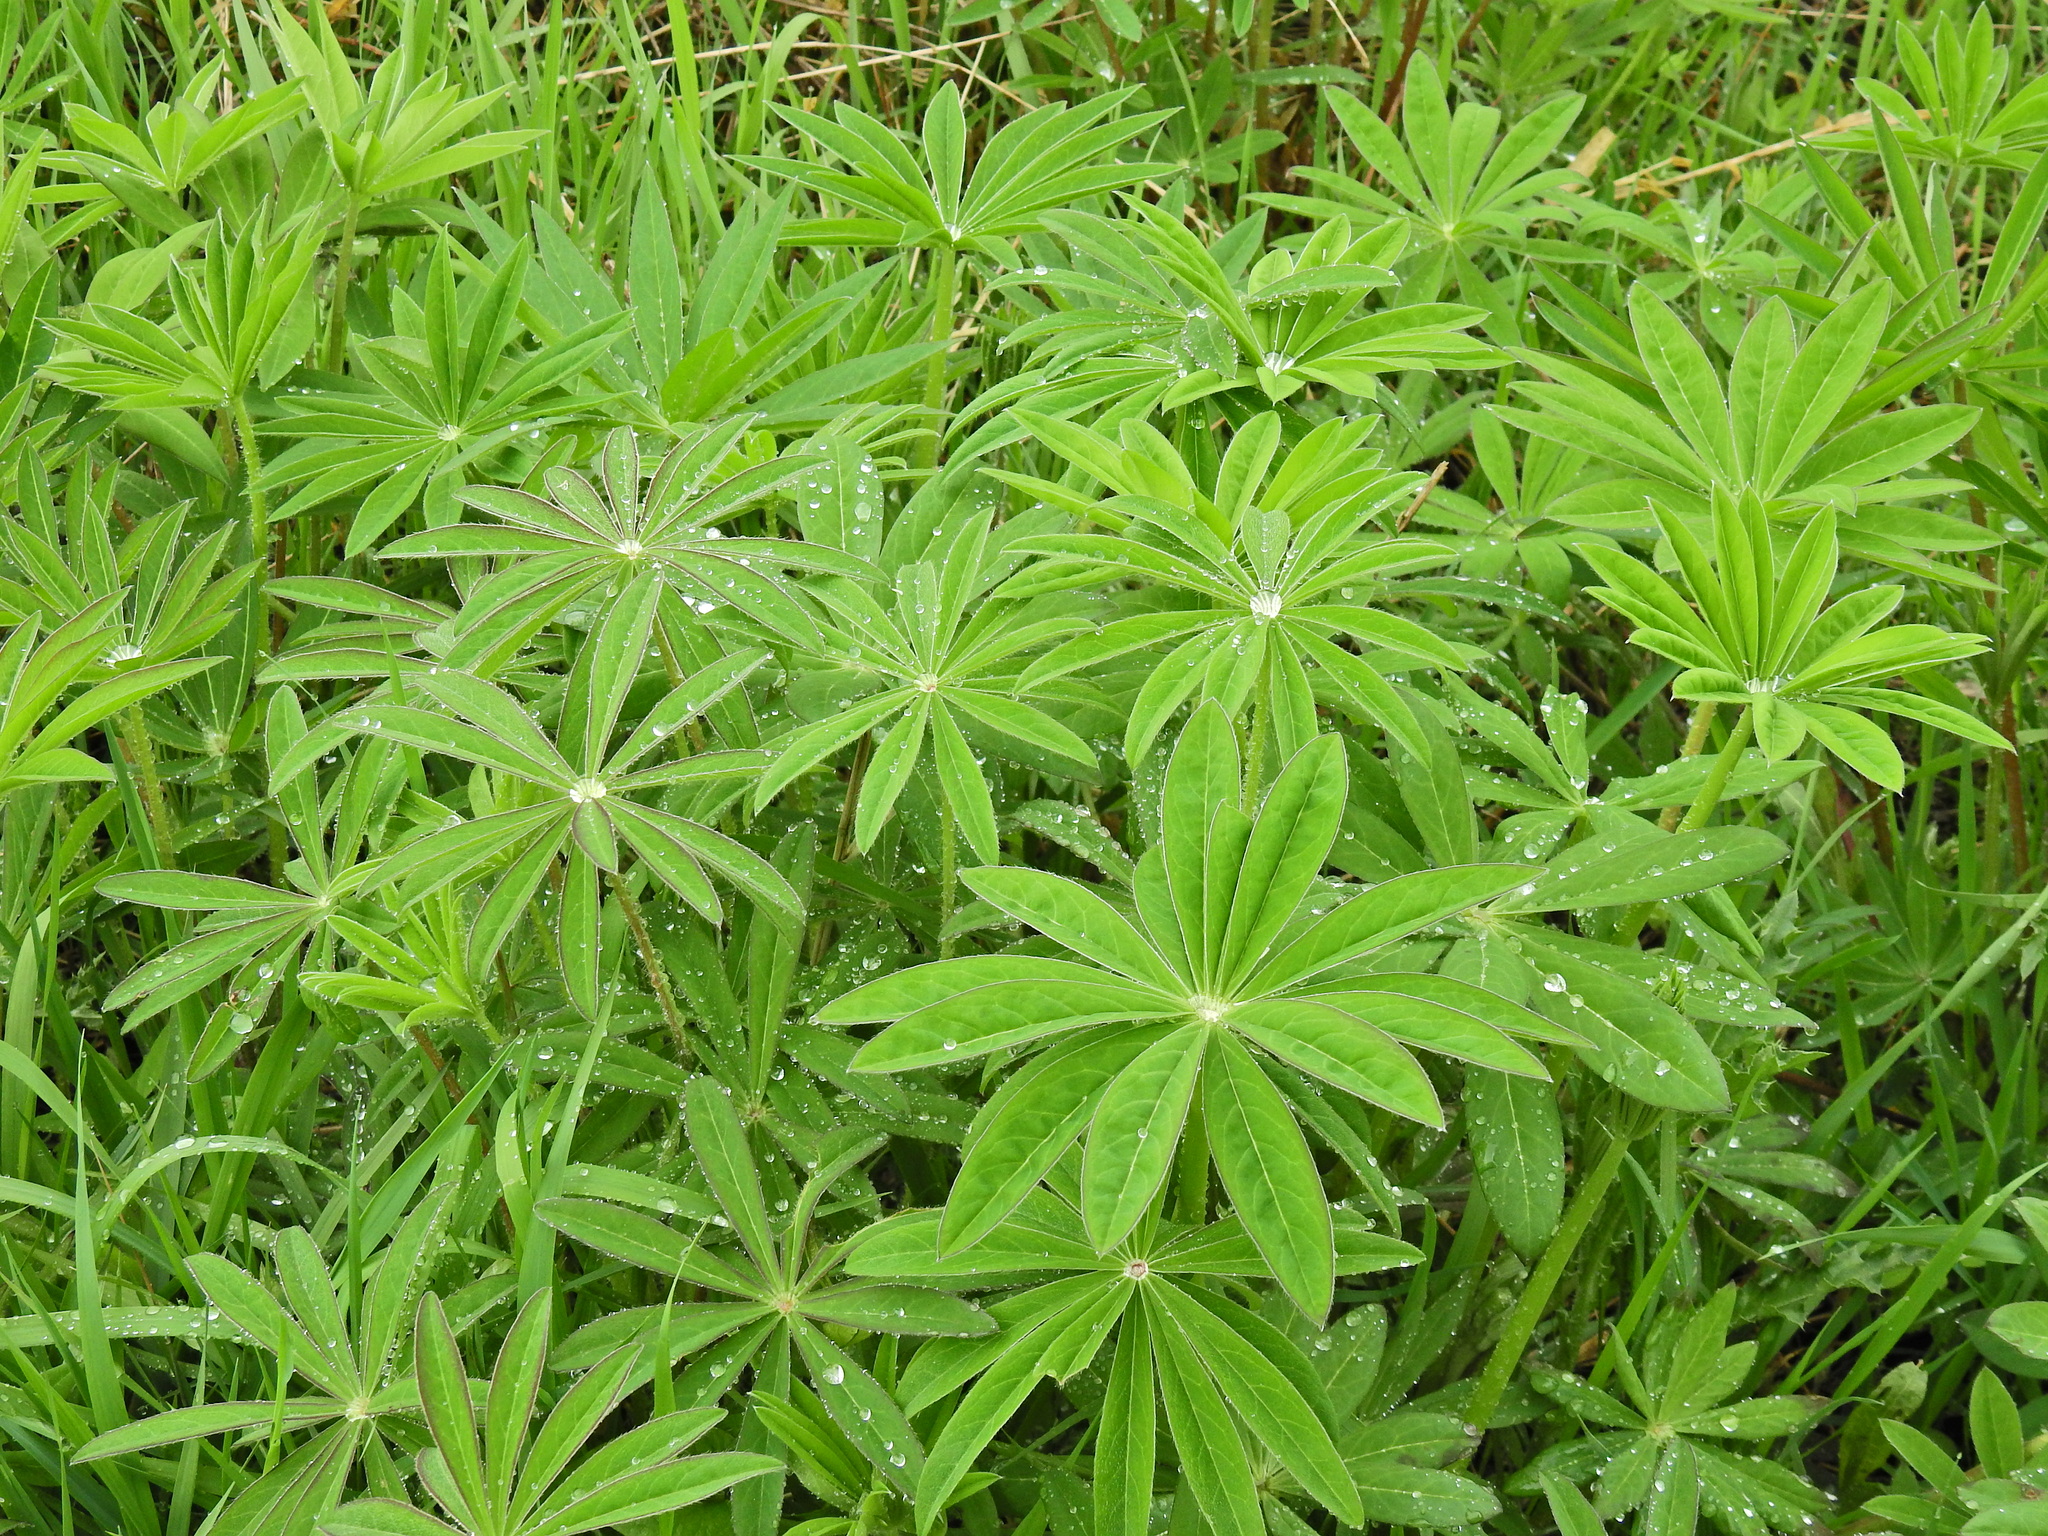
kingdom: Plantae
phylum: Tracheophyta
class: Magnoliopsida
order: Fabales
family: Fabaceae
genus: Lupinus
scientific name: Lupinus polyphyllus
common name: Garden lupin
